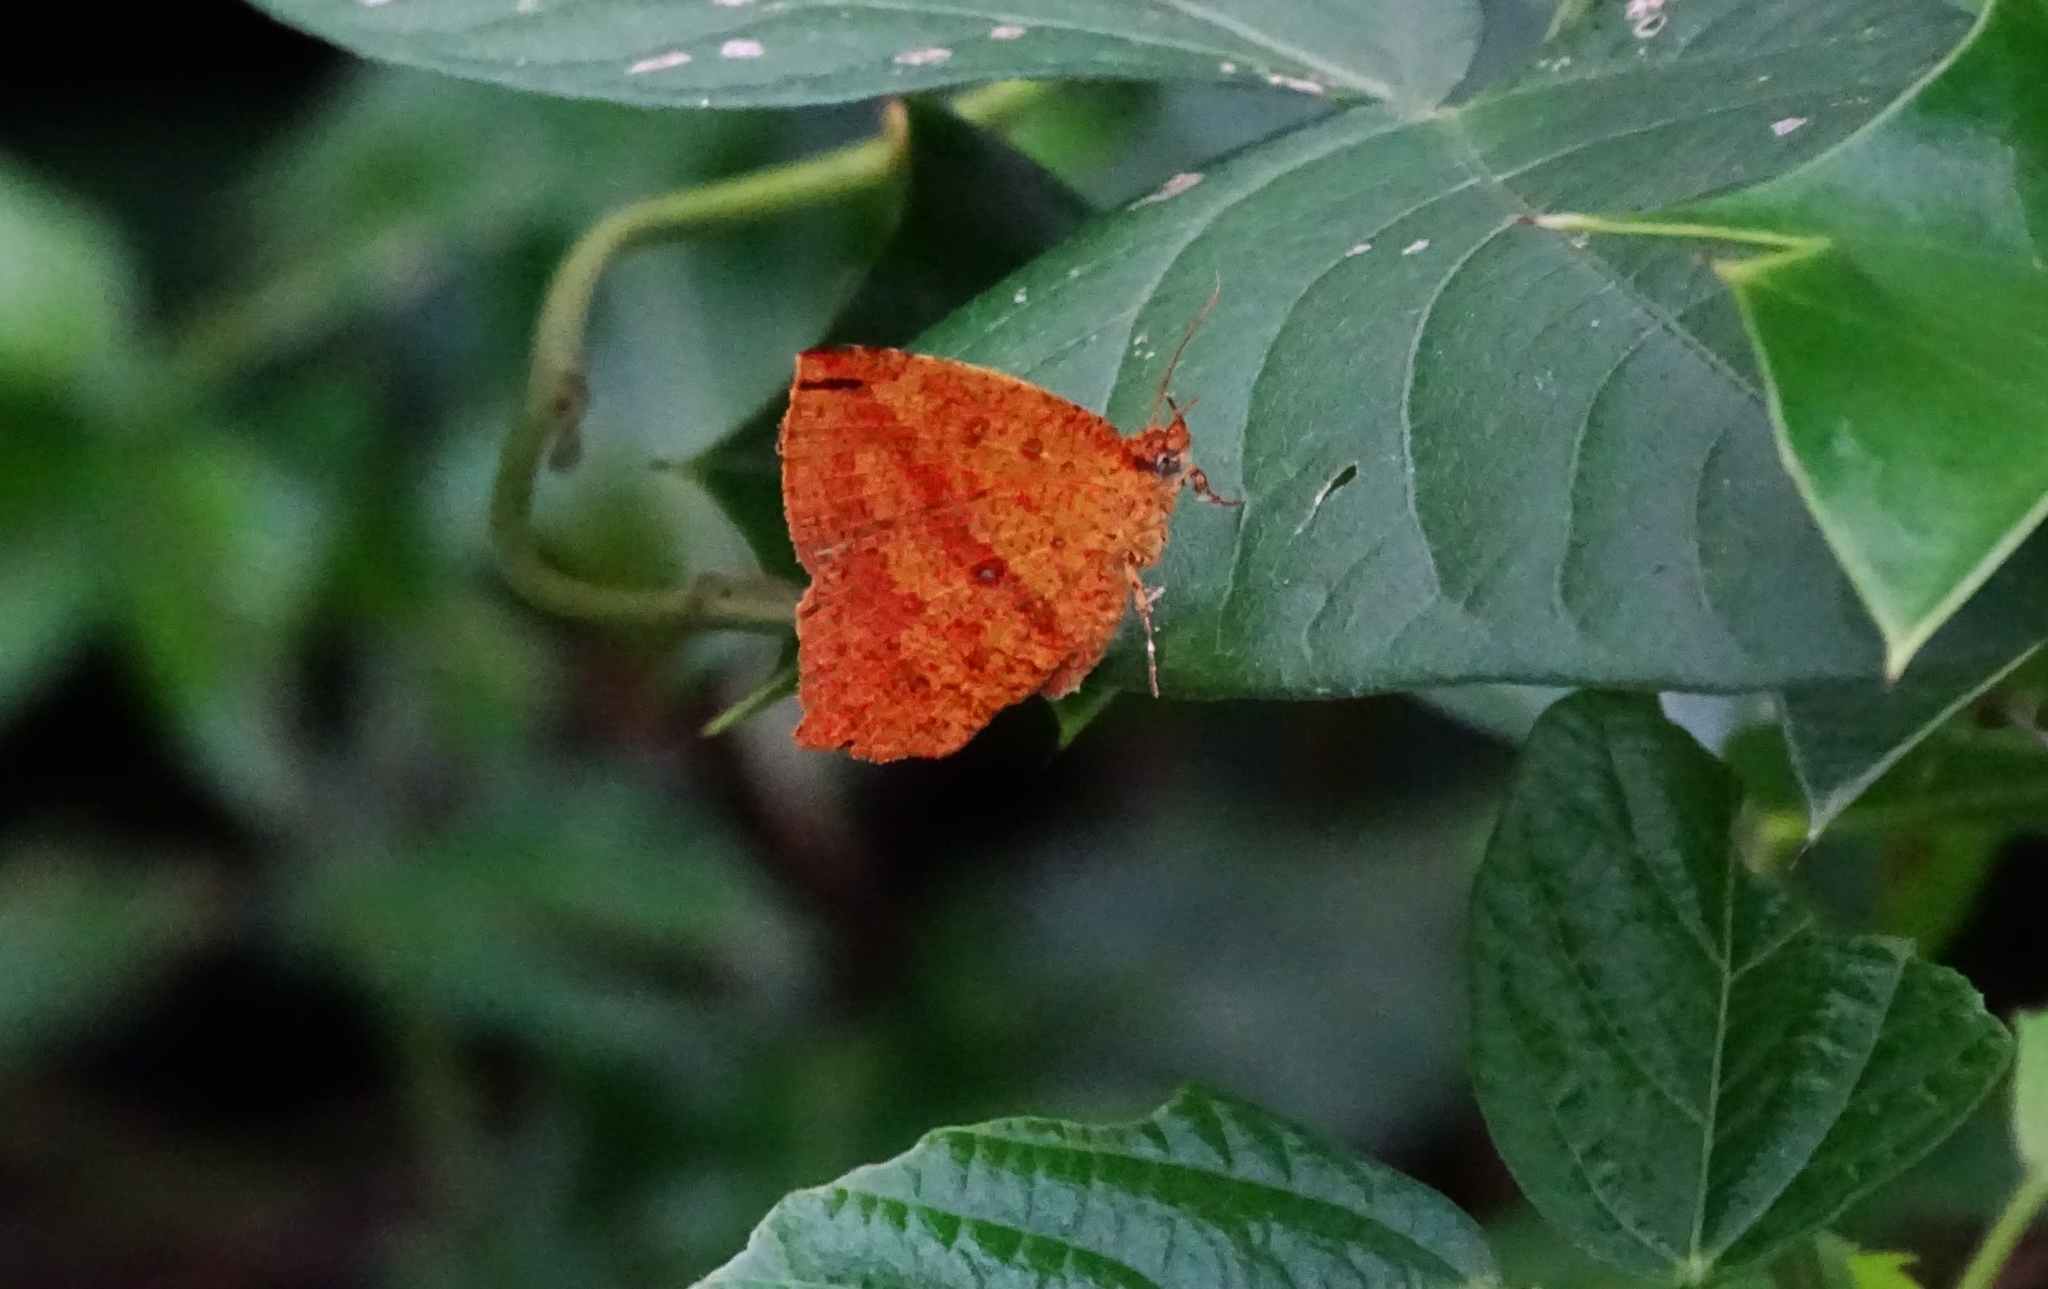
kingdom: Animalia
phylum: Arthropoda
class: Insecta
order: Lepidoptera
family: Callidulidae
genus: Tetragonus
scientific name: Tetragonus catamitus
